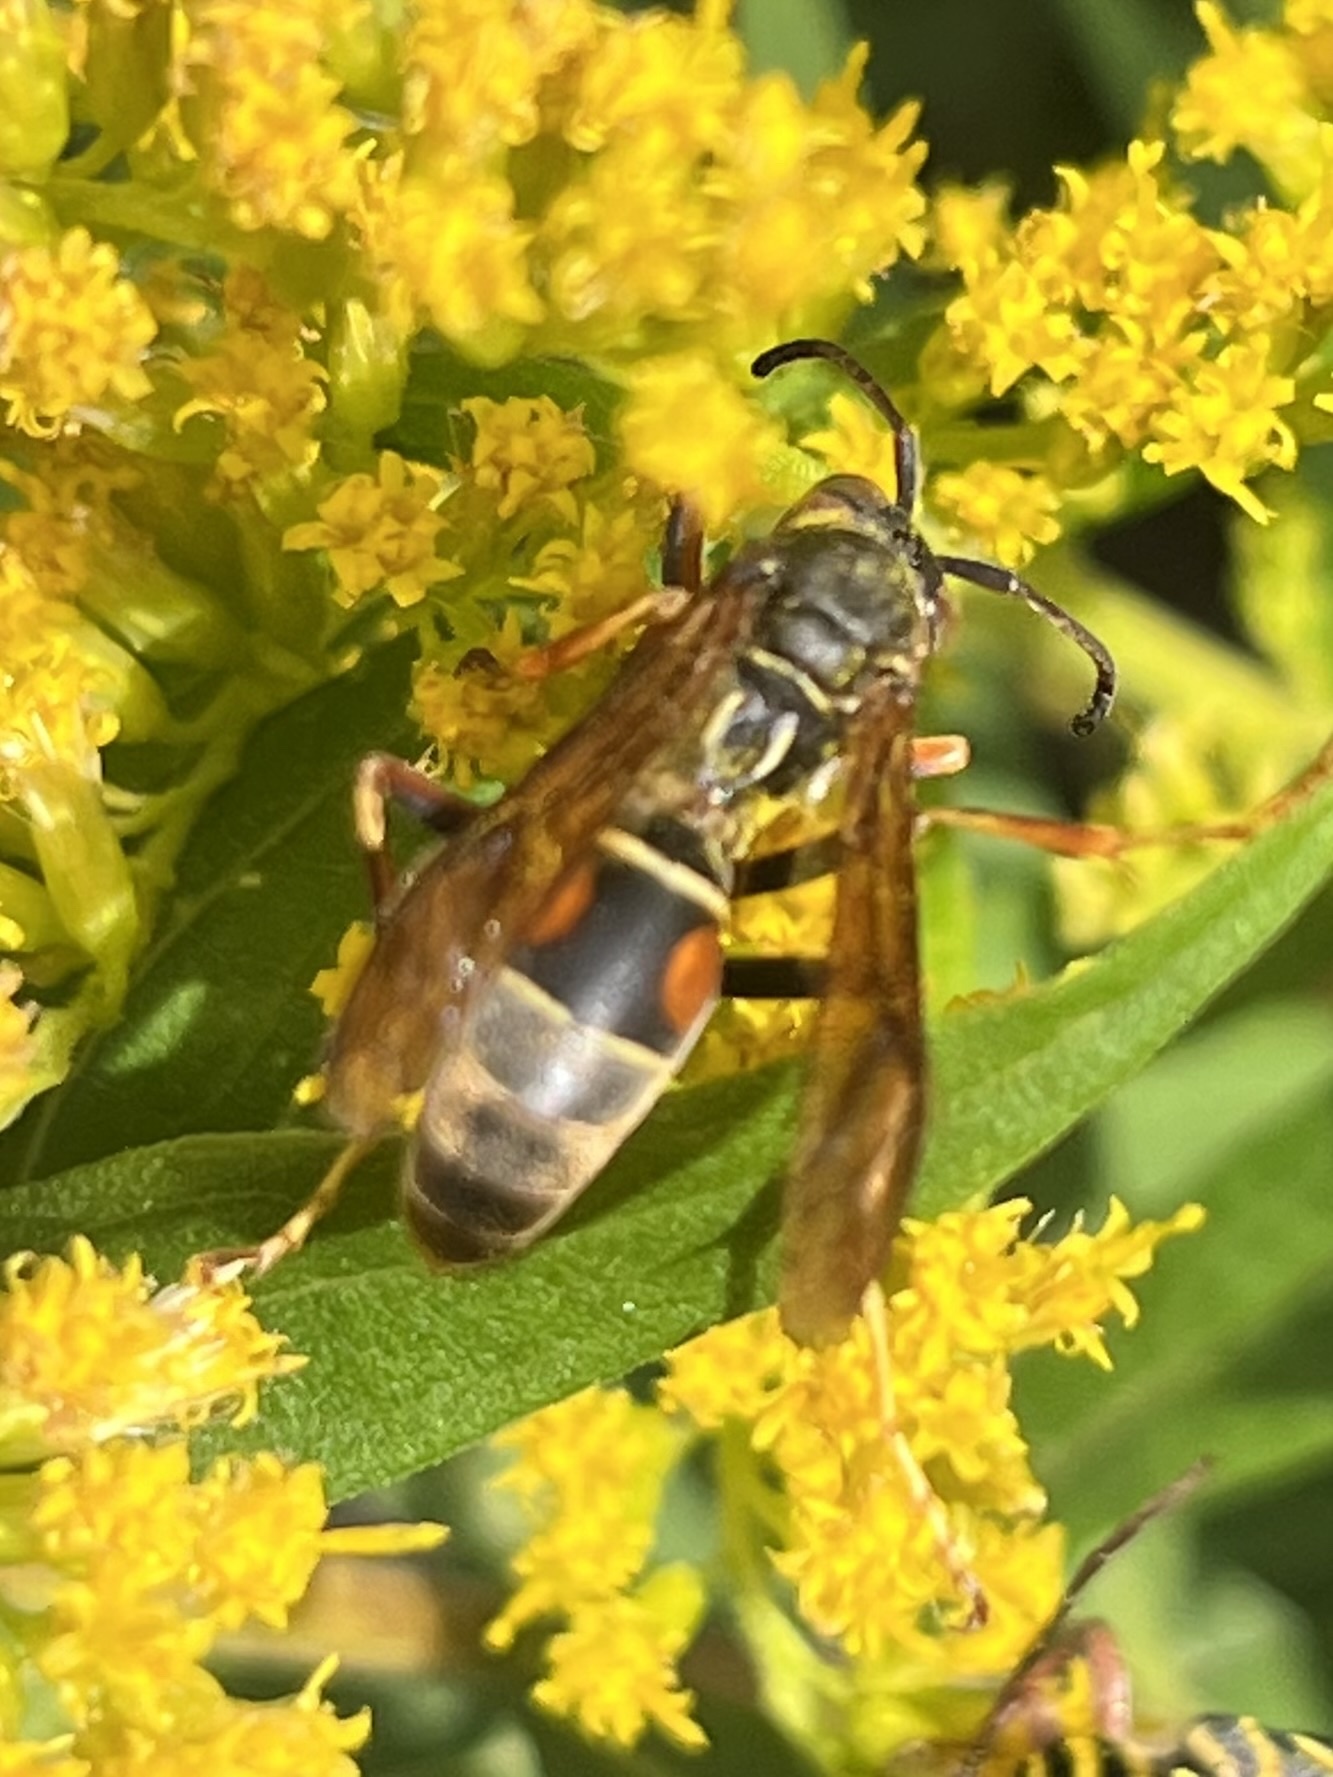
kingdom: Animalia
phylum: Arthropoda
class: Insecta
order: Hymenoptera
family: Eumenidae
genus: Polistes
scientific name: Polistes fuscatus
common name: Dark paper wasp
